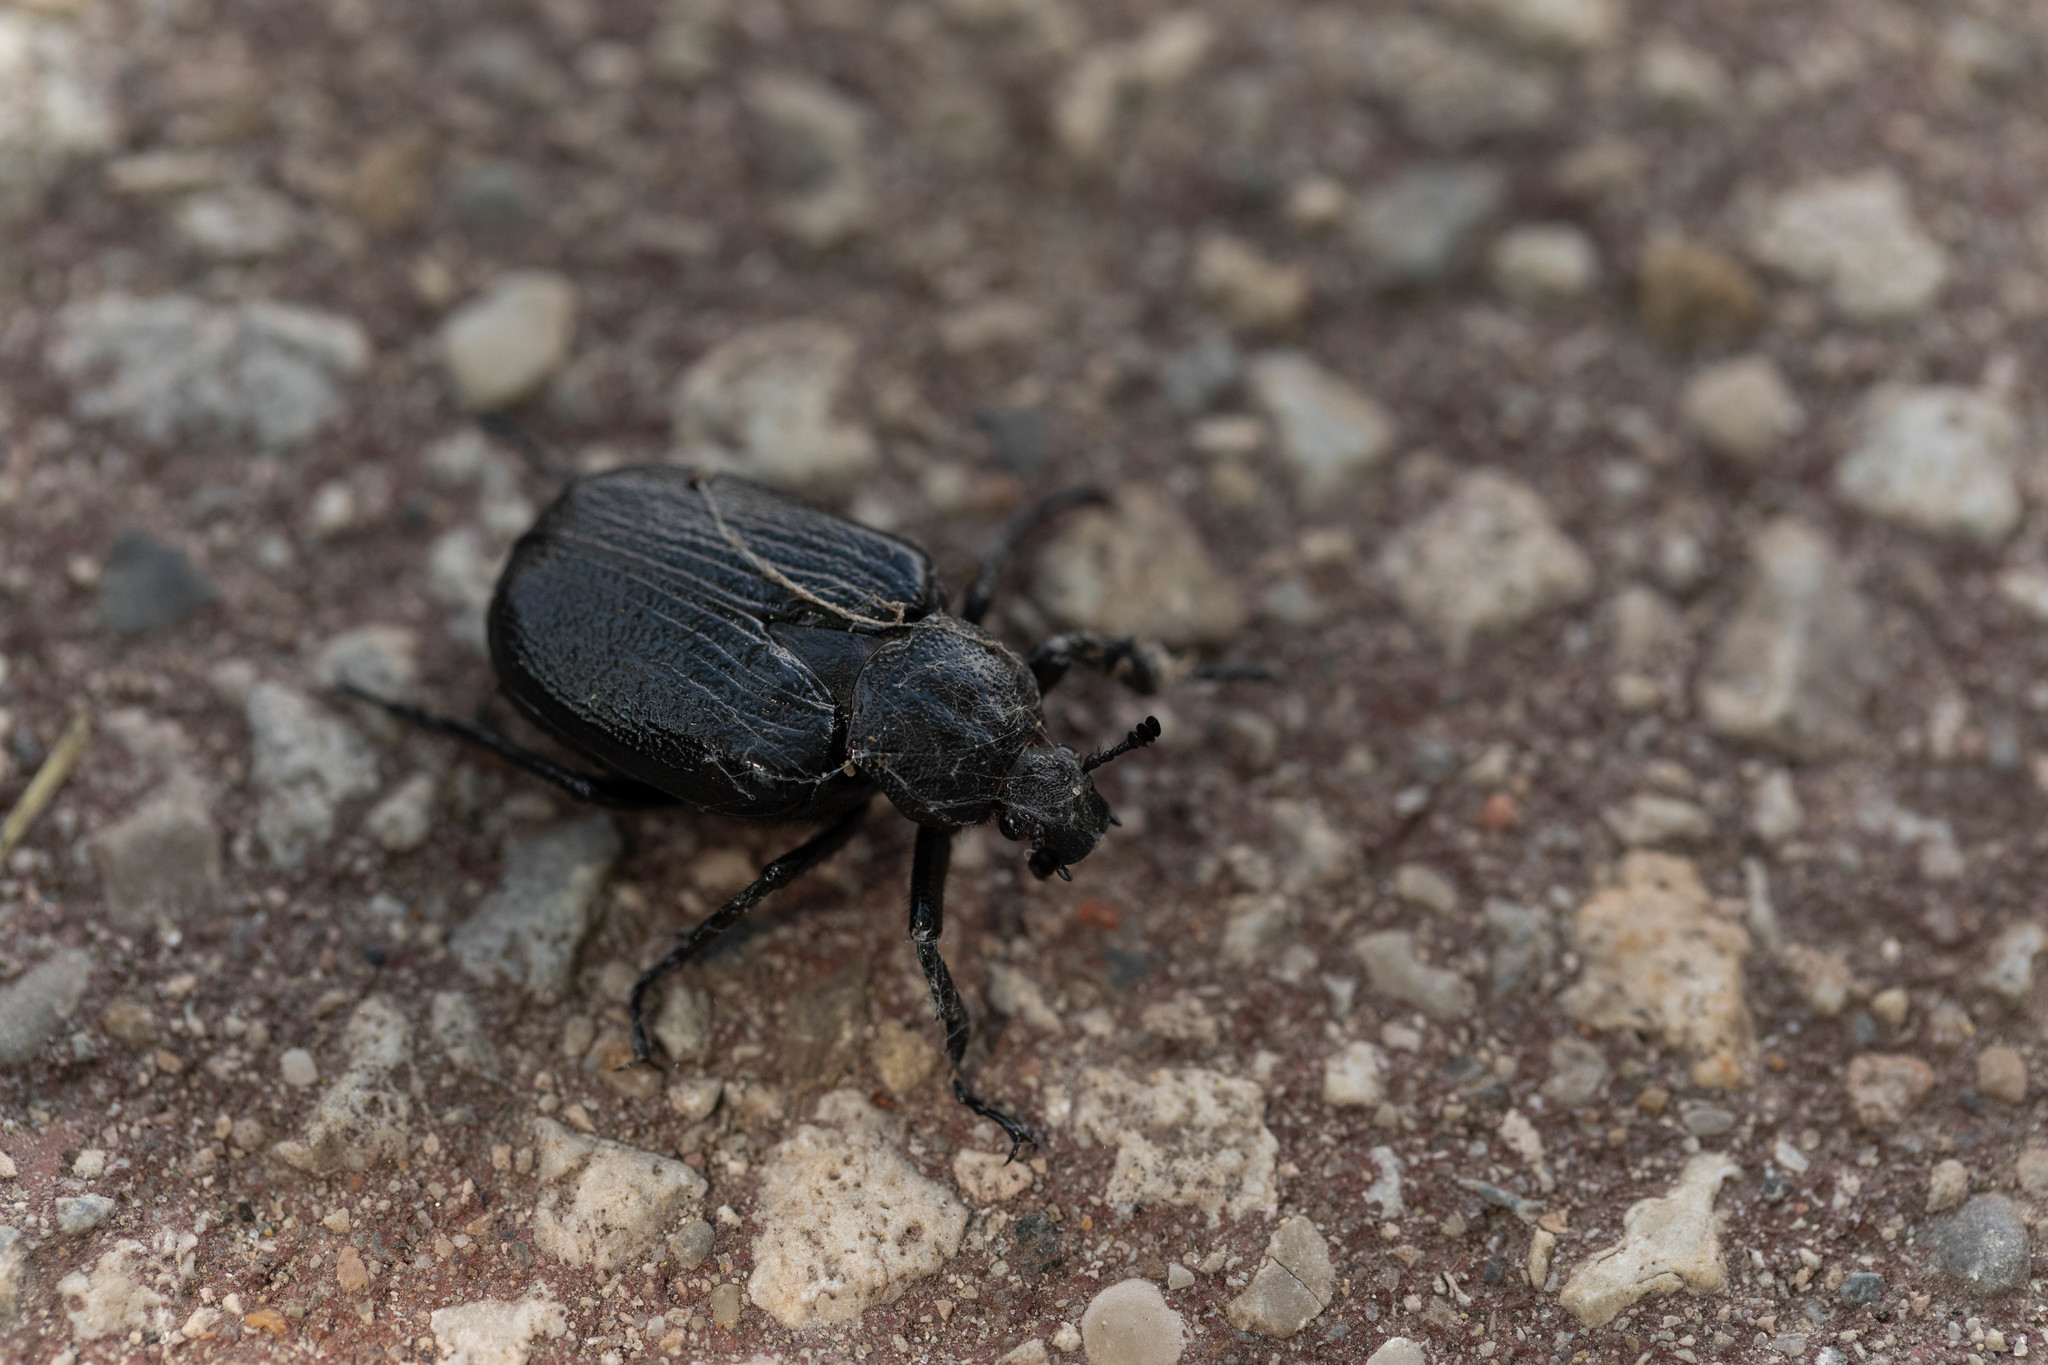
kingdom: Animalia
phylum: Arthropoda
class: Insecta
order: Coleoptera
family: Scarabaeidae
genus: Osmoderma
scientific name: Osmoderma scabra
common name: Rough hermit beetle
